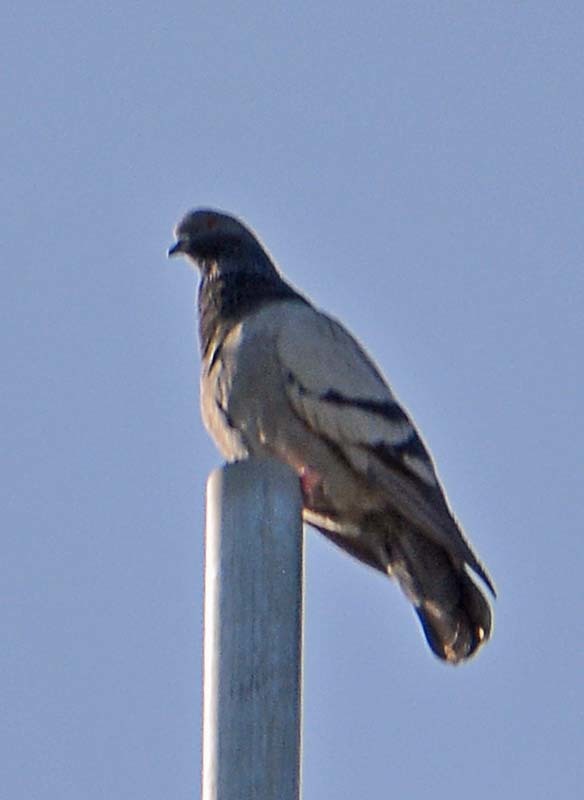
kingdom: Animalia
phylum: Chordata
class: Aves
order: Columbiformes
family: Columbidae
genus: Columba
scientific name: Columba livia
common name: Rock pigeon
